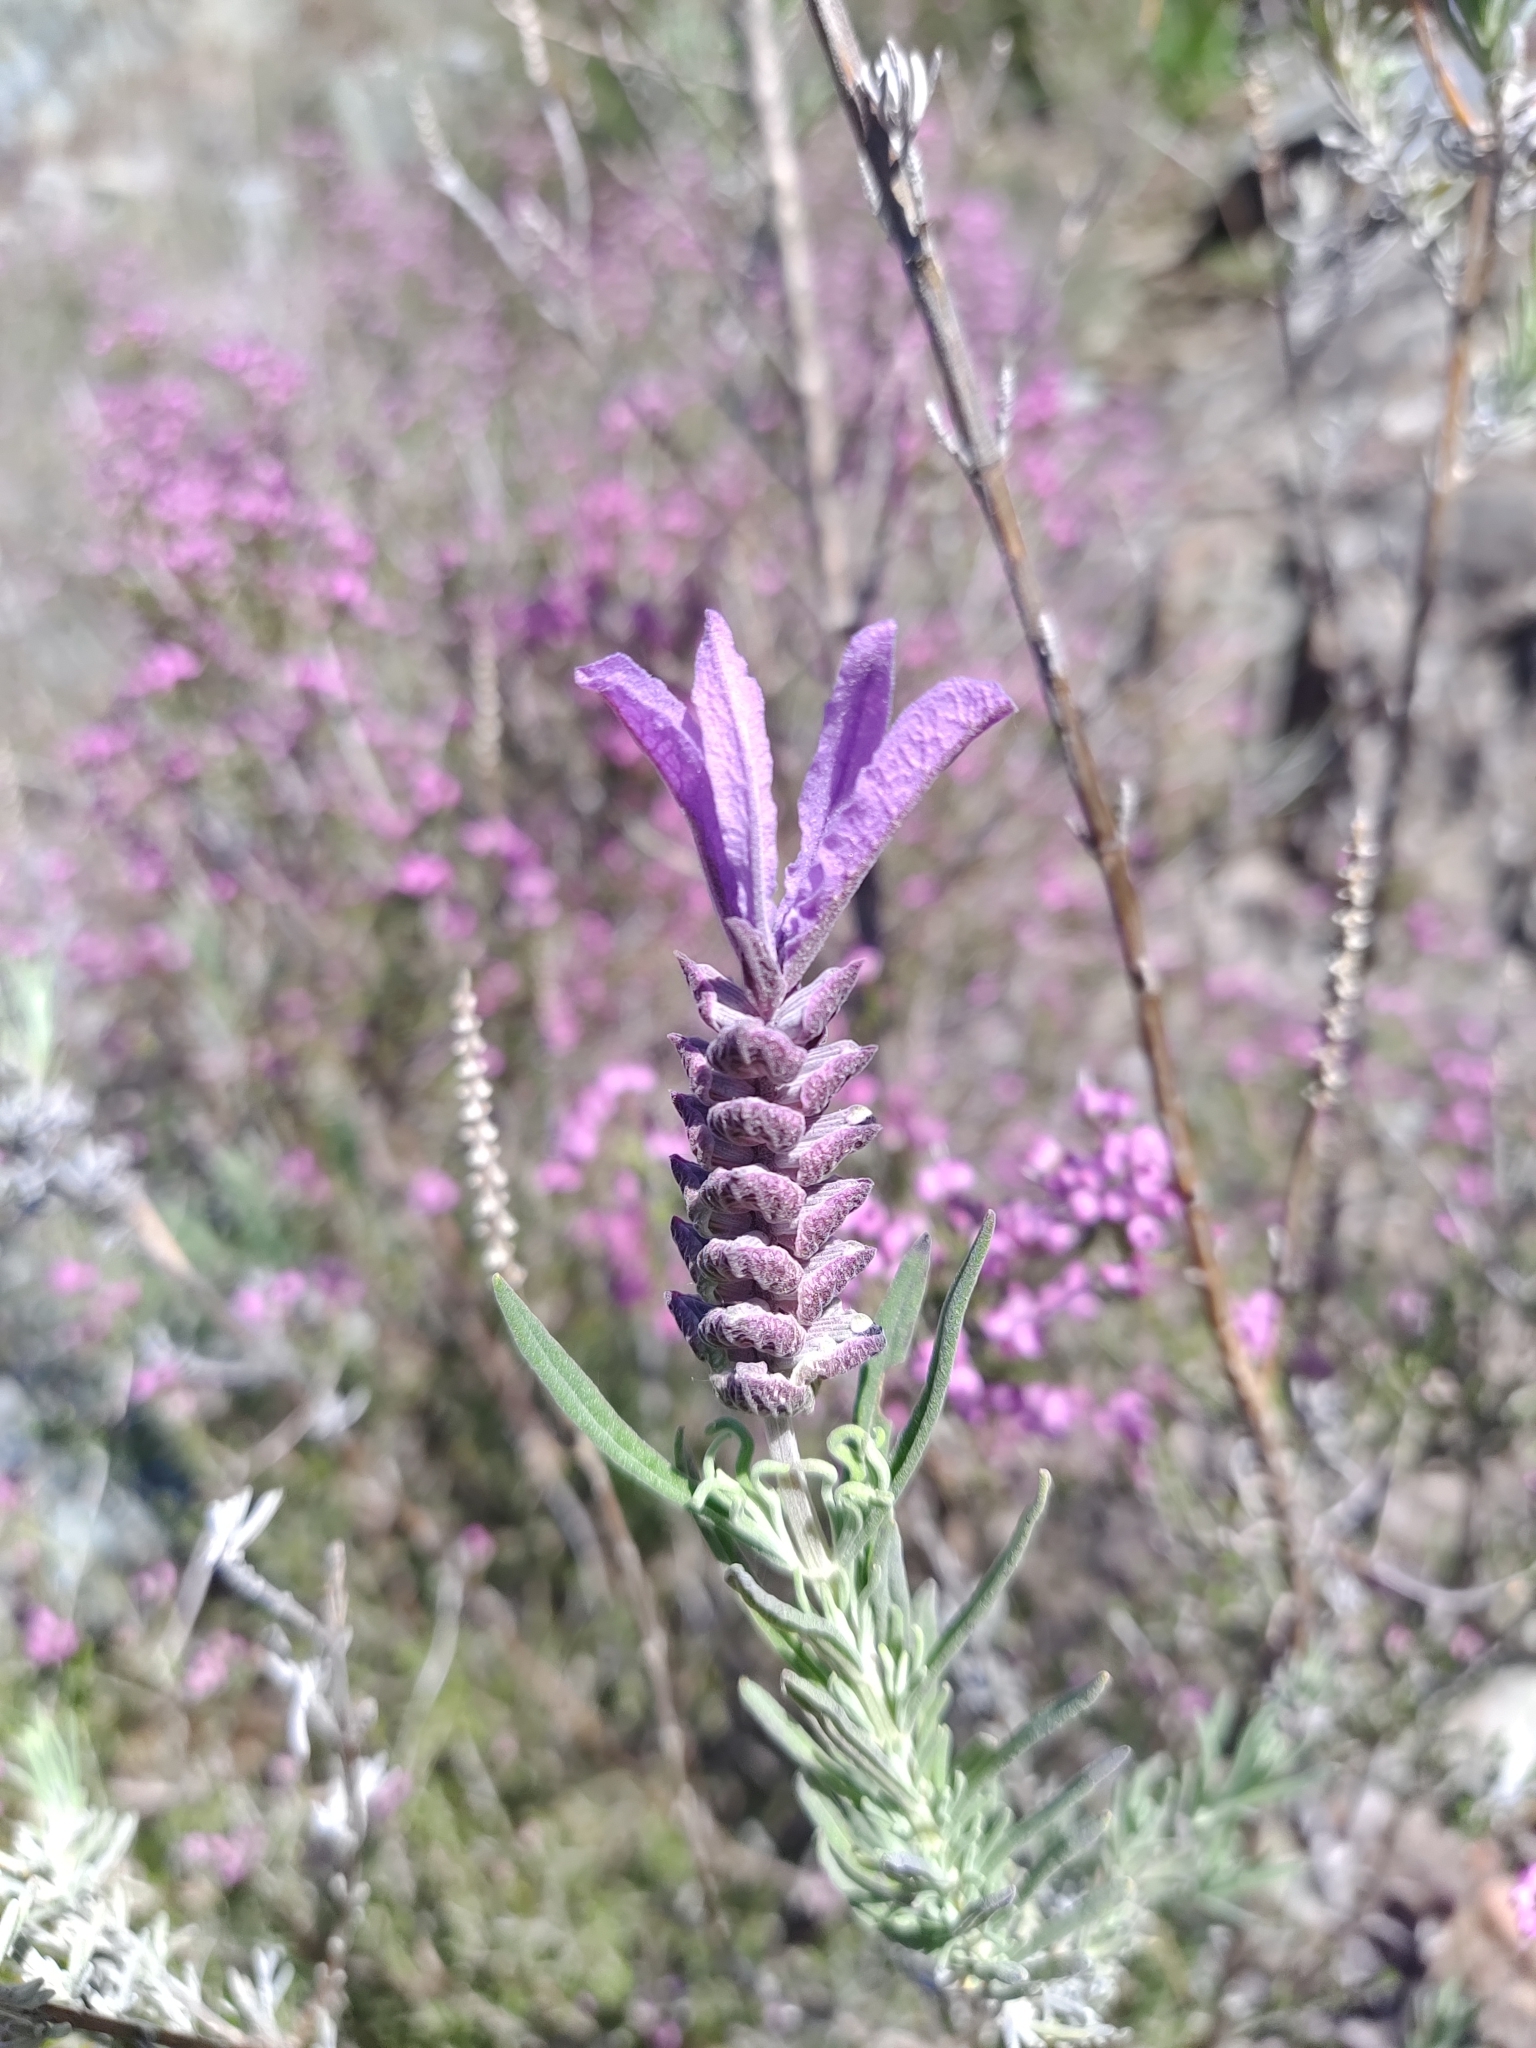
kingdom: Plantae
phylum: Tracheophyta
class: Magnoliopsida
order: Lamiales
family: Lamiaceae
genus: Lavandula
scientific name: Lavandula stoechas
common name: French lavender
